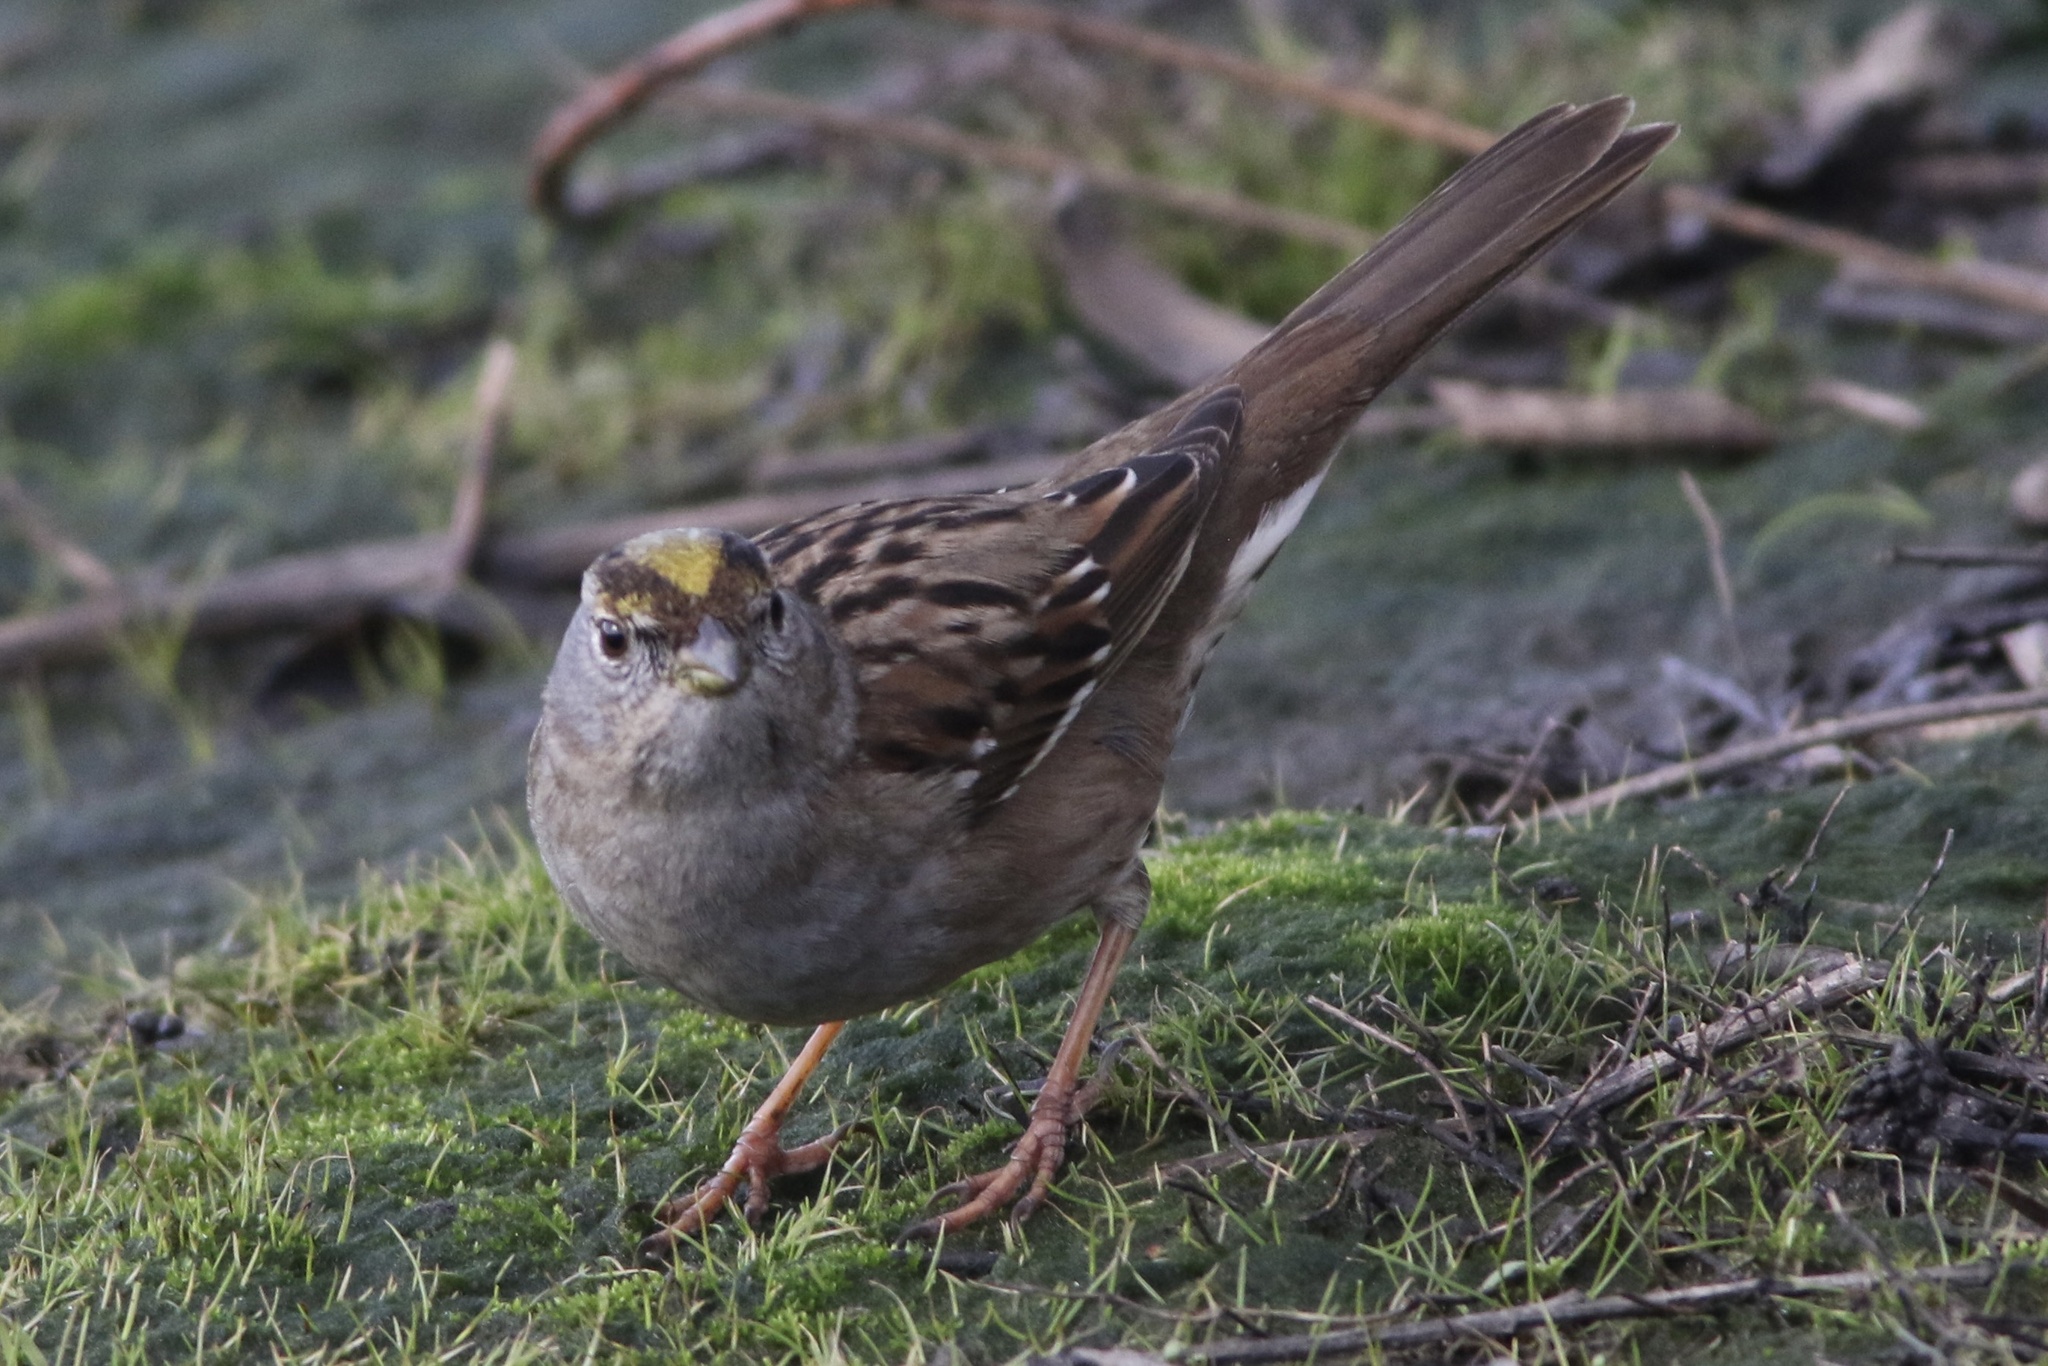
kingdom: Animalia
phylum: Chordata
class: Aves
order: Passeriformes
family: Passerellidae
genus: Zonotrichia
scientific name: Zonotrichia atricapilla
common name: Golden-crowned sparrow
